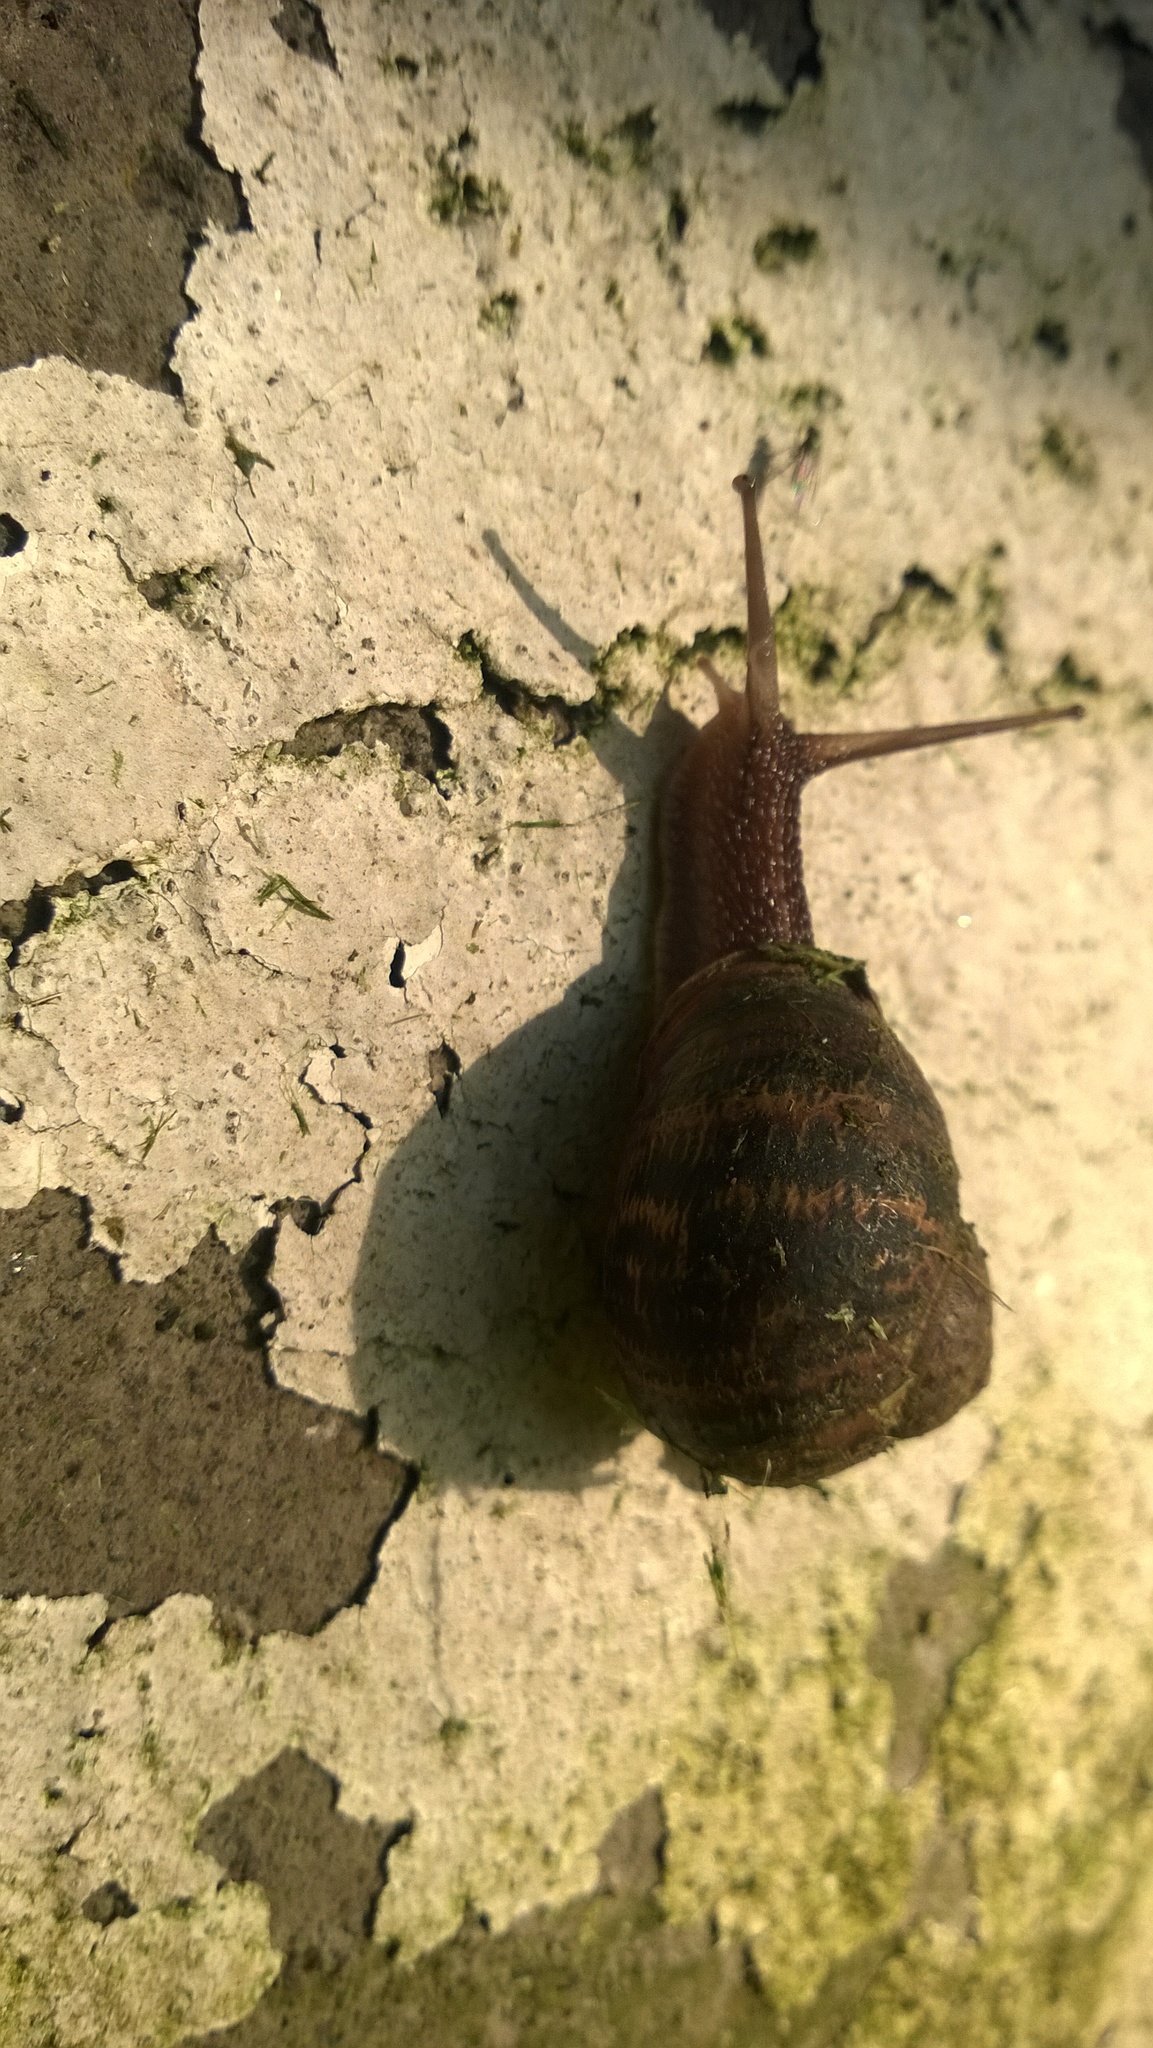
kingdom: Animalia
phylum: Mollusca
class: Gastropoda
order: Stylommatophora
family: Helicidae
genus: Cornu
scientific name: Cornu aspersum
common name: Brown garden snail
